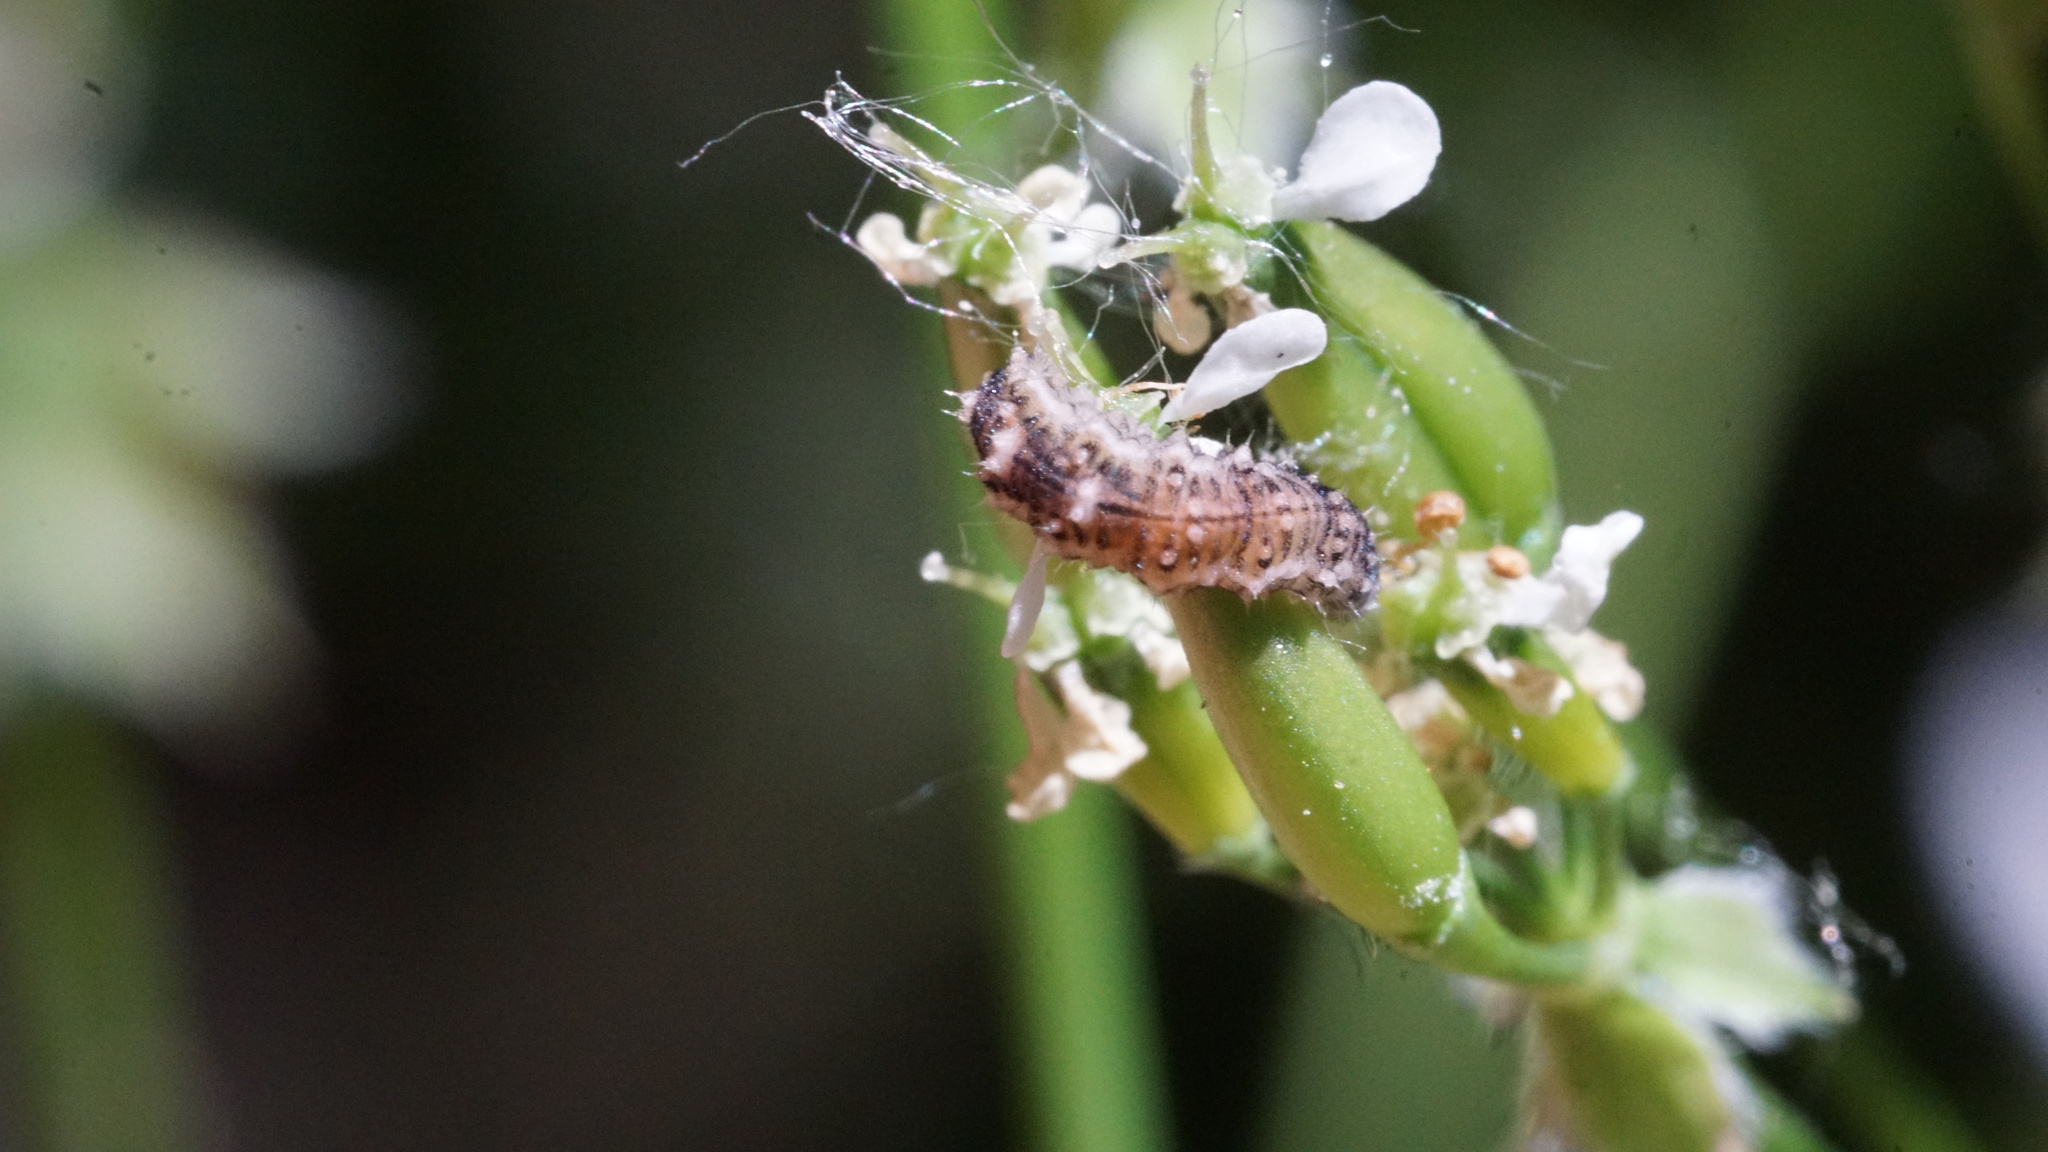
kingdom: Animalia
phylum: Arthropoda
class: Insecta
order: Diptera
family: Syrphidae
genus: Eupeodes
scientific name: Eupeodes
